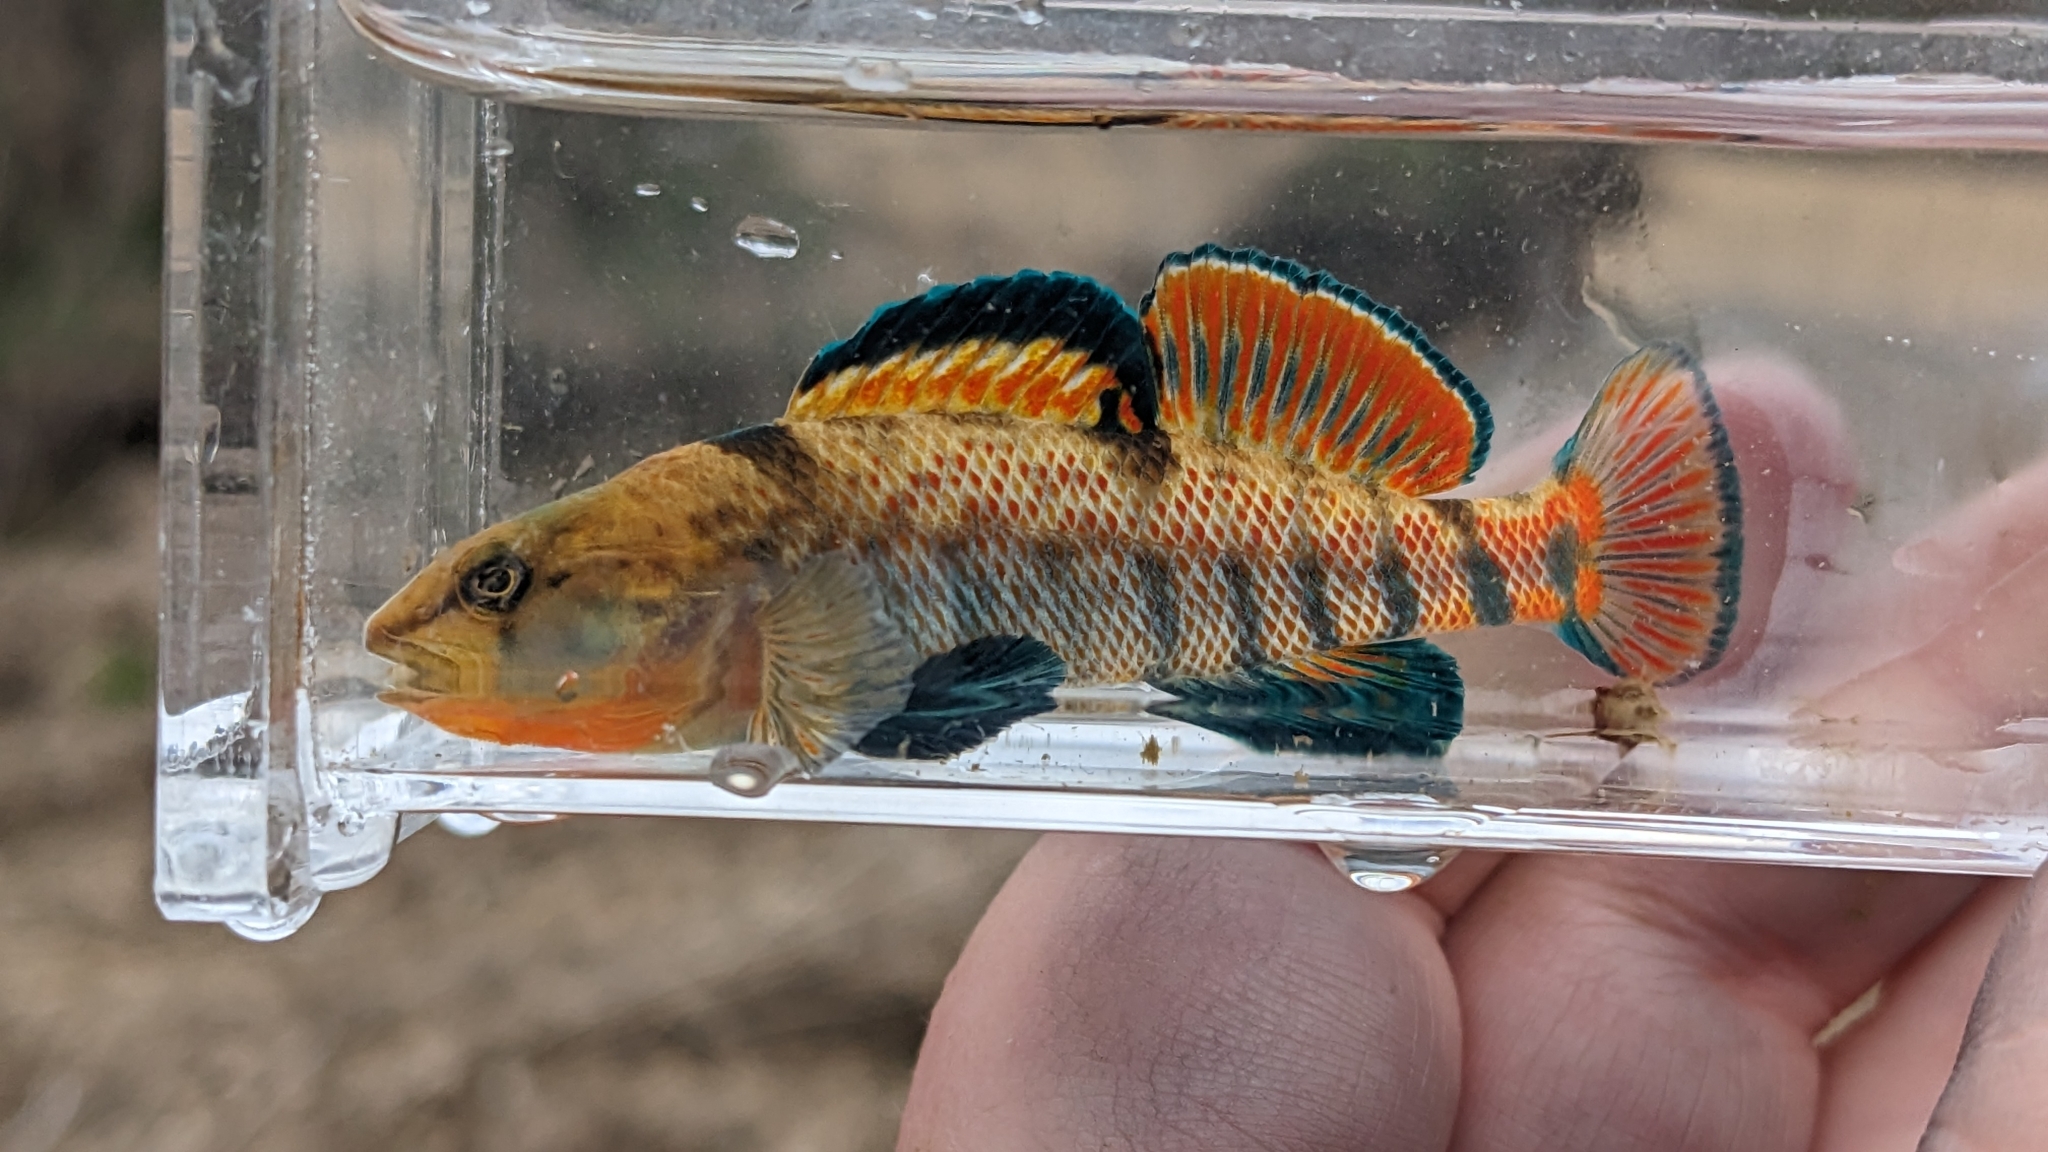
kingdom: Animalia
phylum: Chordata
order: Perciformes
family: Percidae
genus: Etheostoma
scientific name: Etheostoma caeruleum
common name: Rainbow darter
